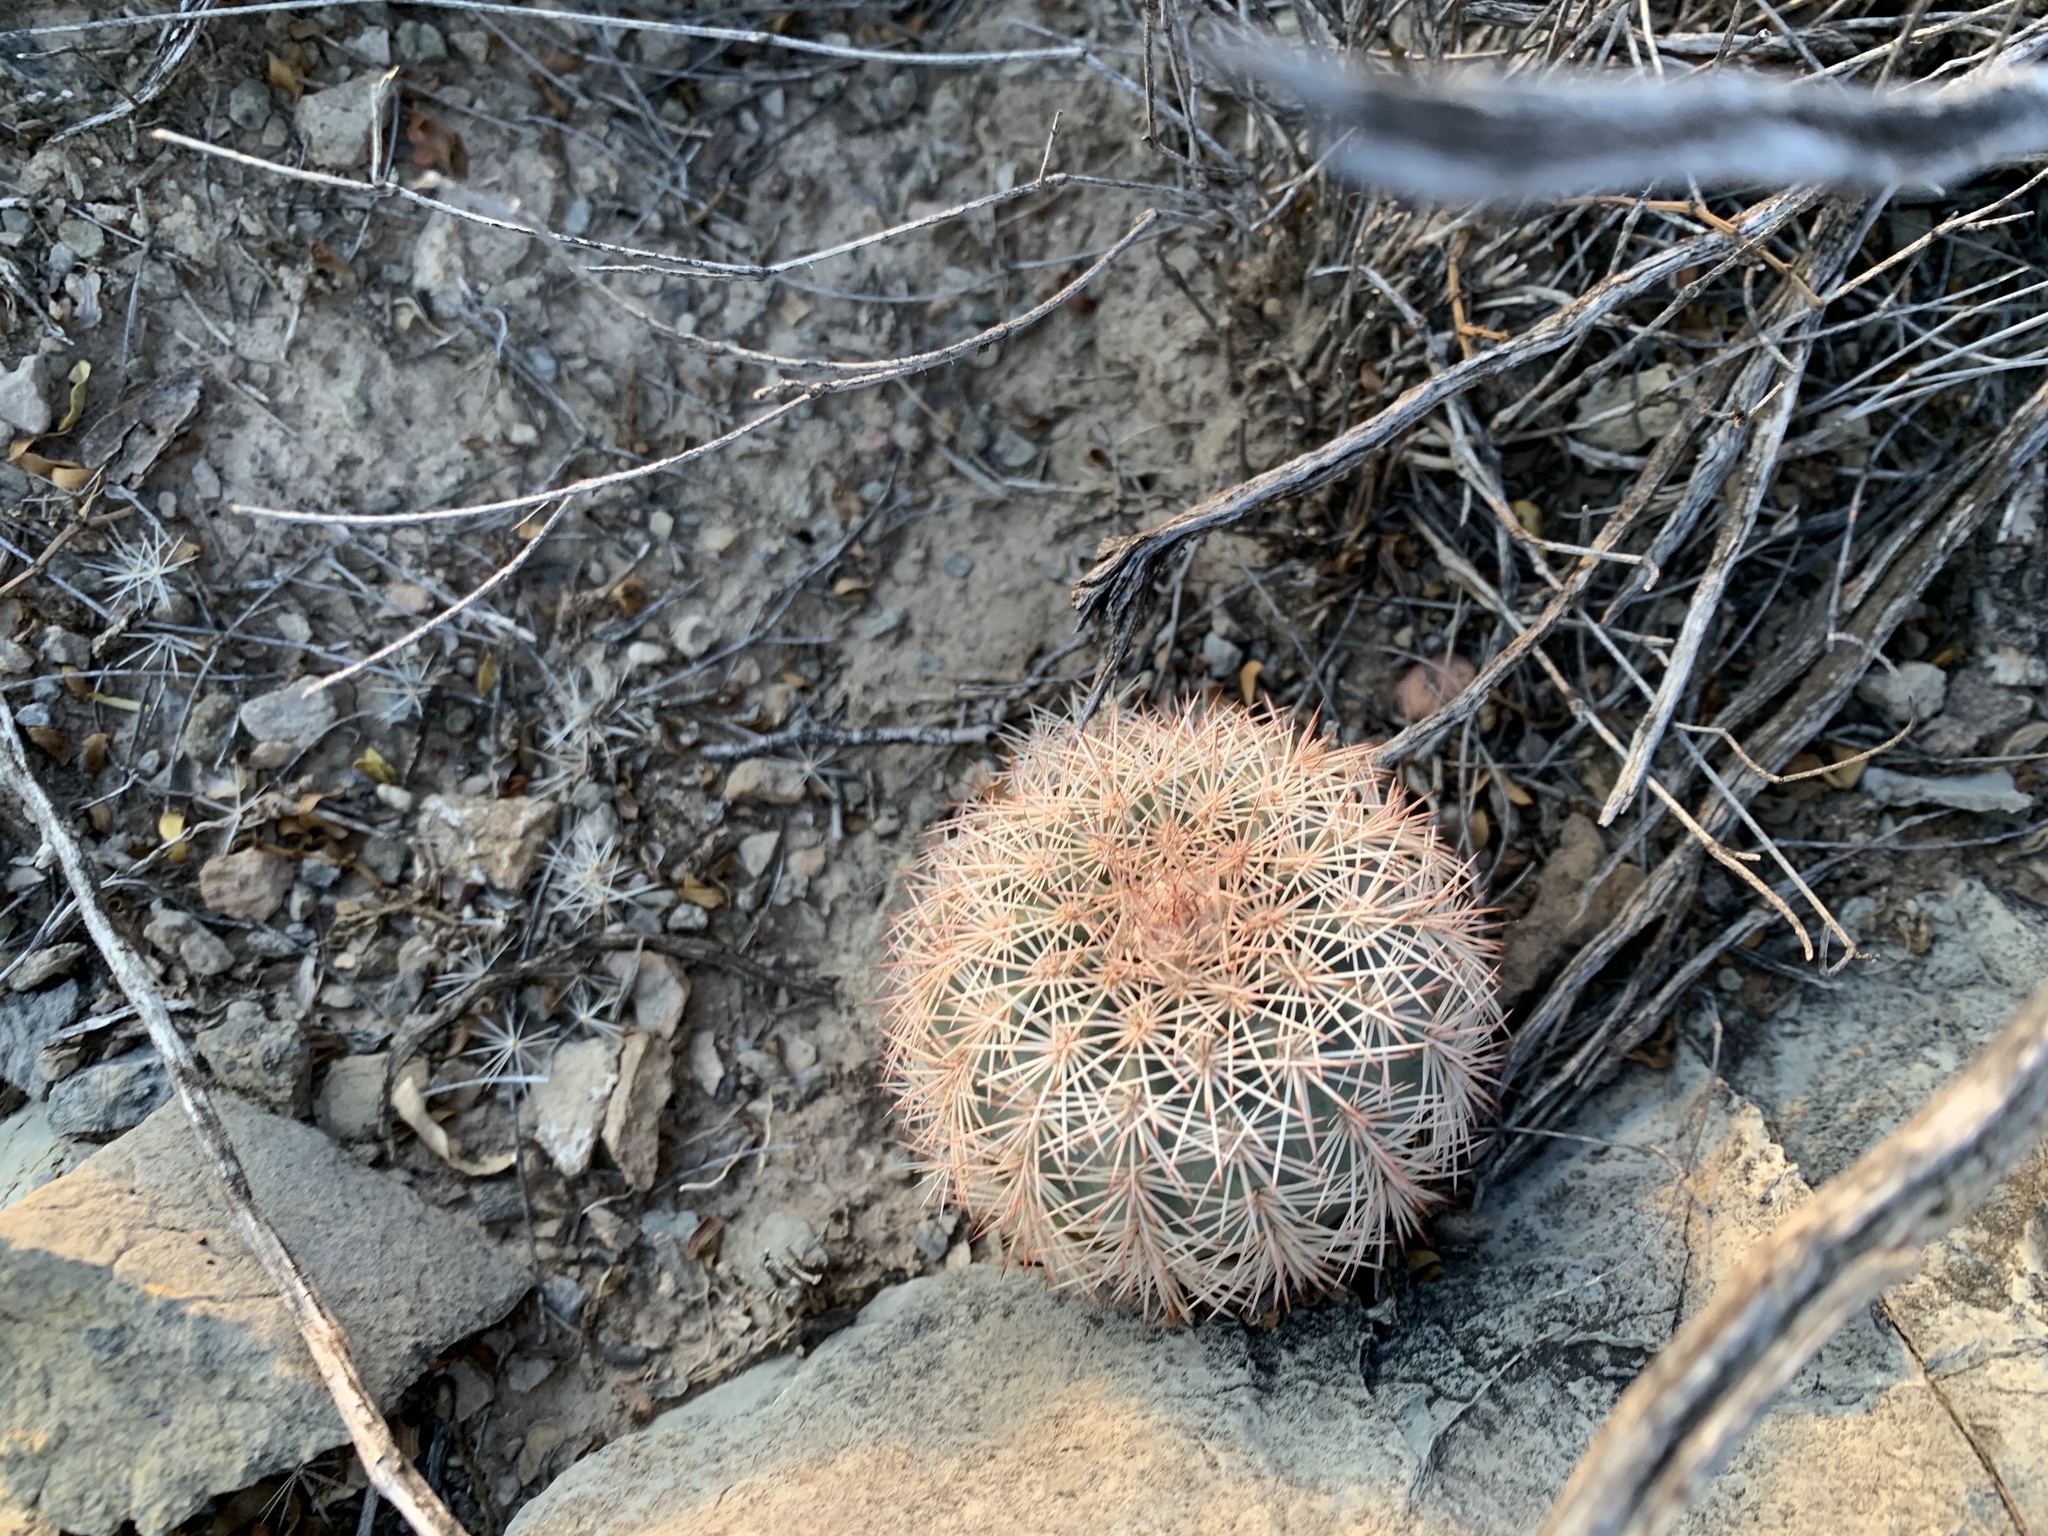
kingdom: Plantae
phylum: Tracheophyta
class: Magnoliopsida
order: Caryophyllales
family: Cactaceae
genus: Echinocereus
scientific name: Echinocereus dasyacanthus
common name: Spiny hedgehog cactus
